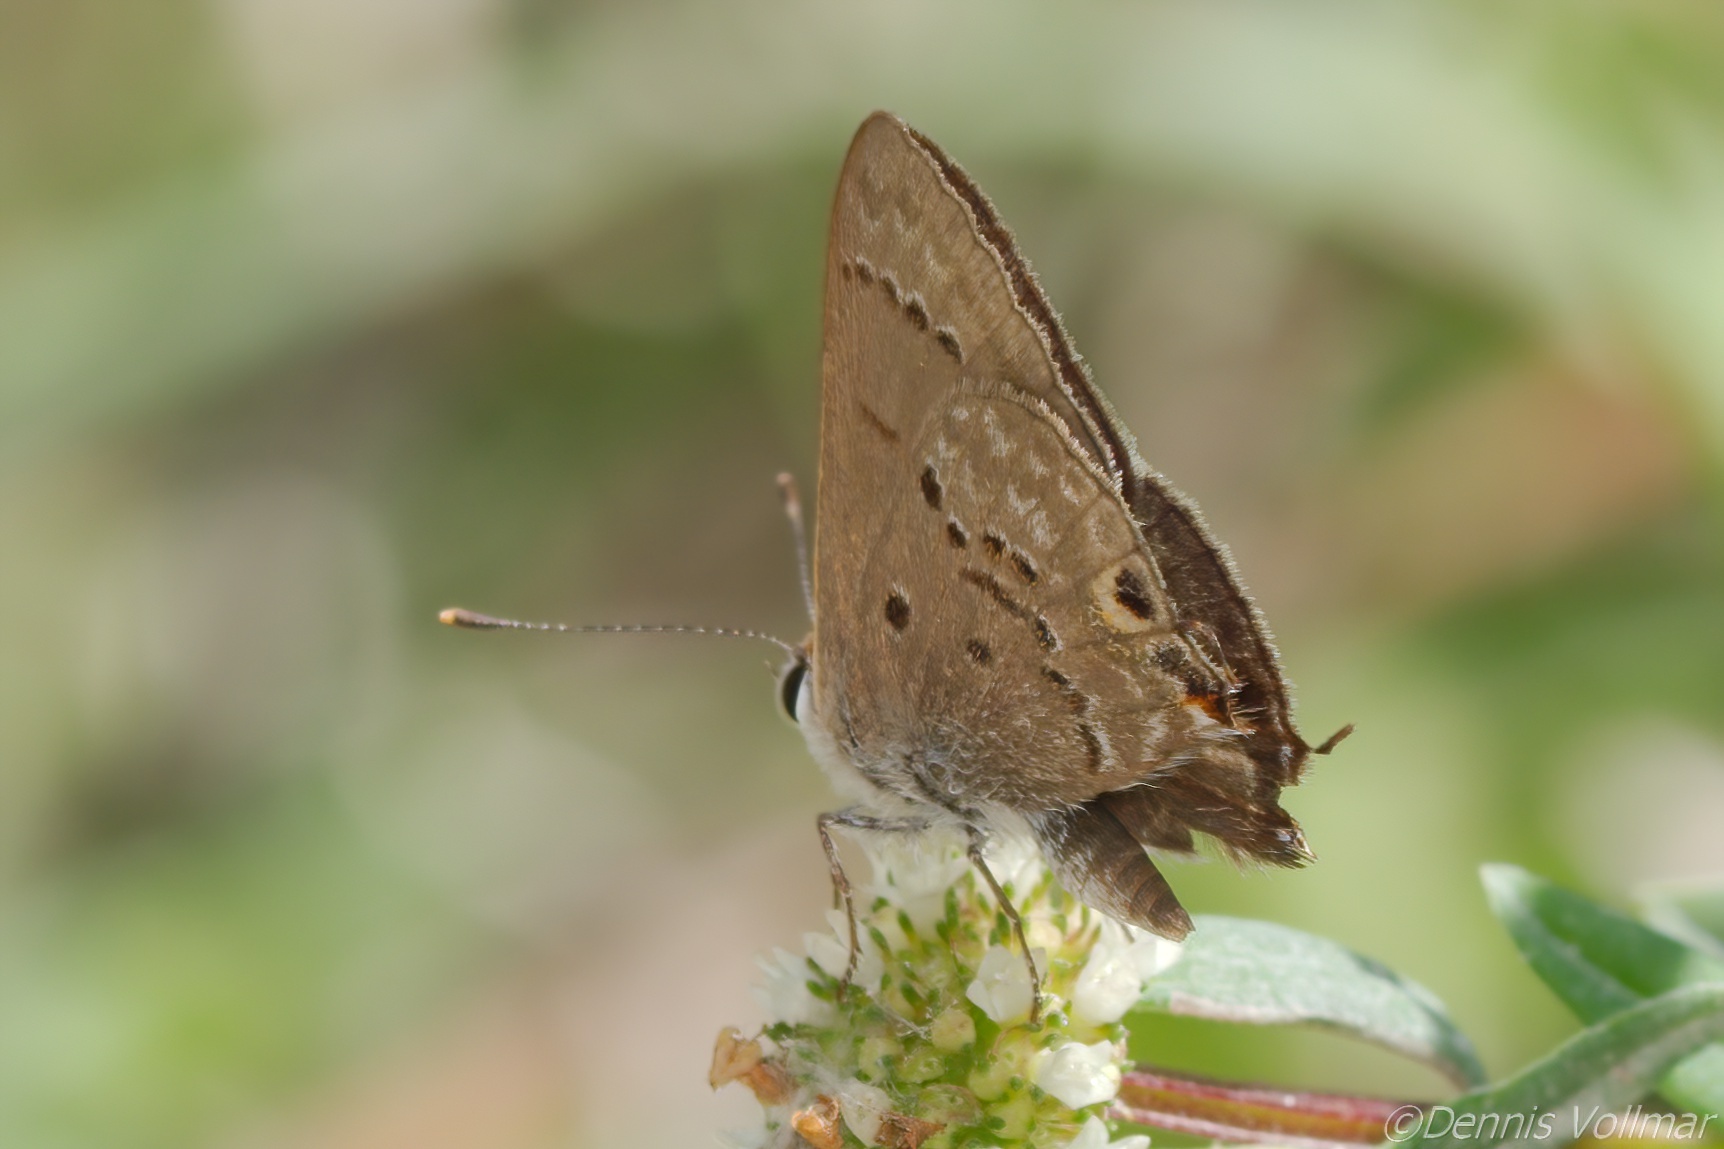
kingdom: Animalia
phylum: Arthropoda
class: Insecta
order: Lepidoptera
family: Lycaenidae
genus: Callicista
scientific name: Callicista columella
